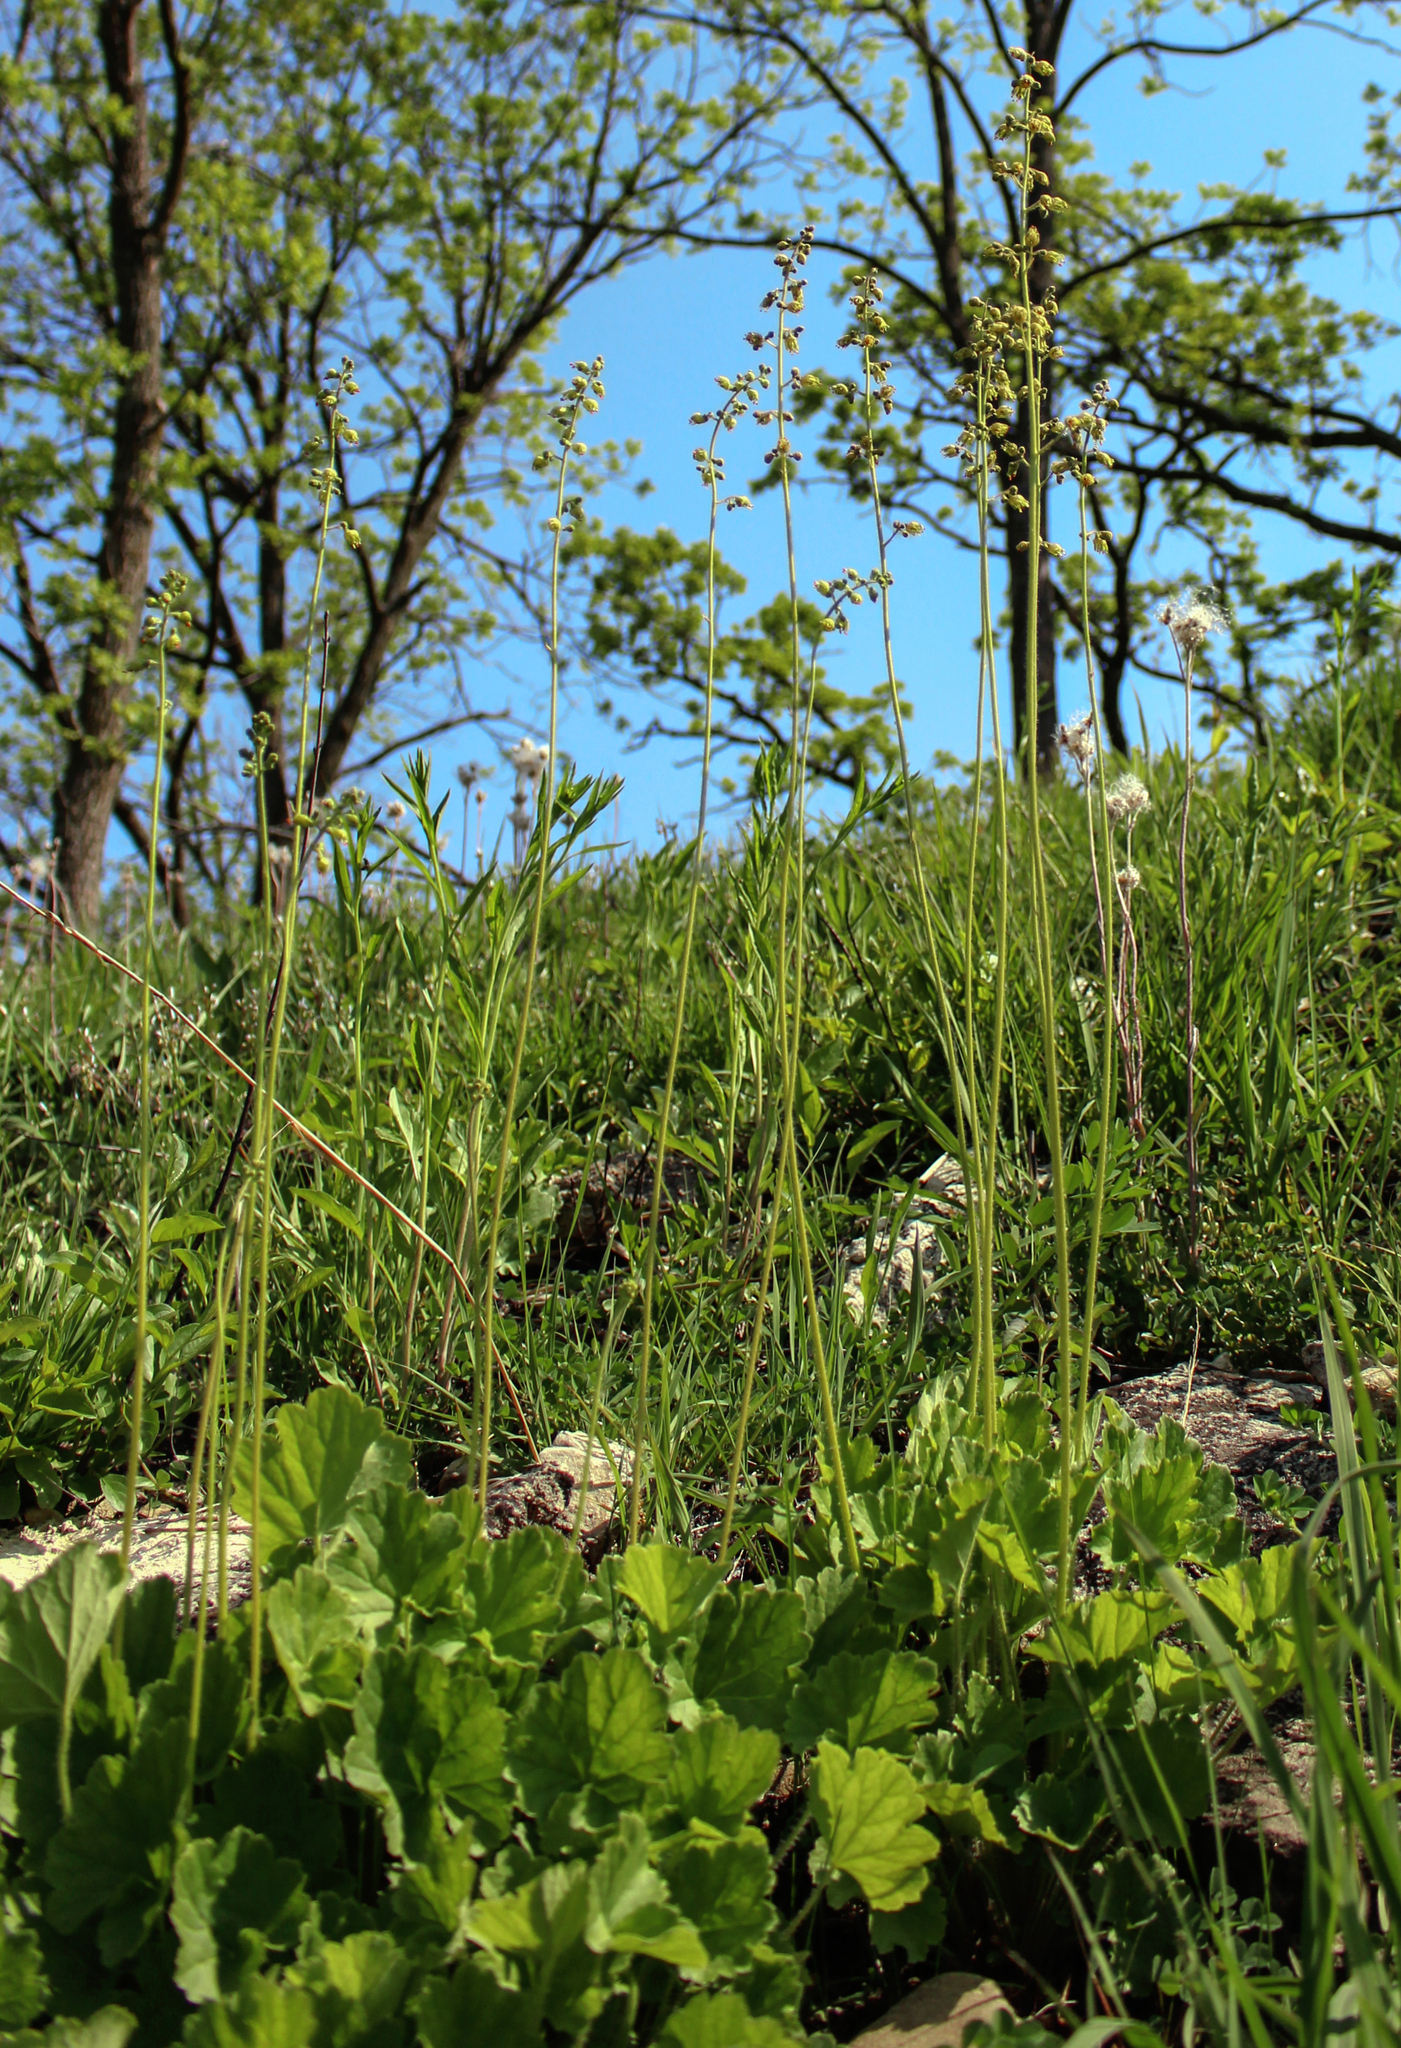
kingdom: Plantae
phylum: Tracheophyta
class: Magnoliopsida
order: Saxifragales
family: Saxifragaceae
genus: Heuchera
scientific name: Heuchera richardsonii
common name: Richardson's alumroot
